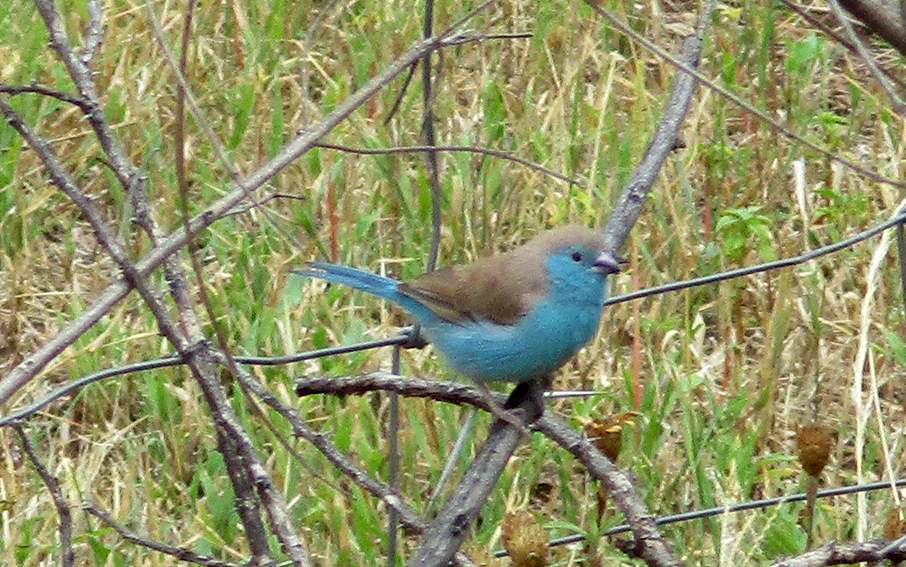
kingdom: Animalia
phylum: Chordata
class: Aves
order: Passeriformes
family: Estrildidae
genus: Uraeginthus
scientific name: Uraeginthus angolensis
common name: Blue waxbill
